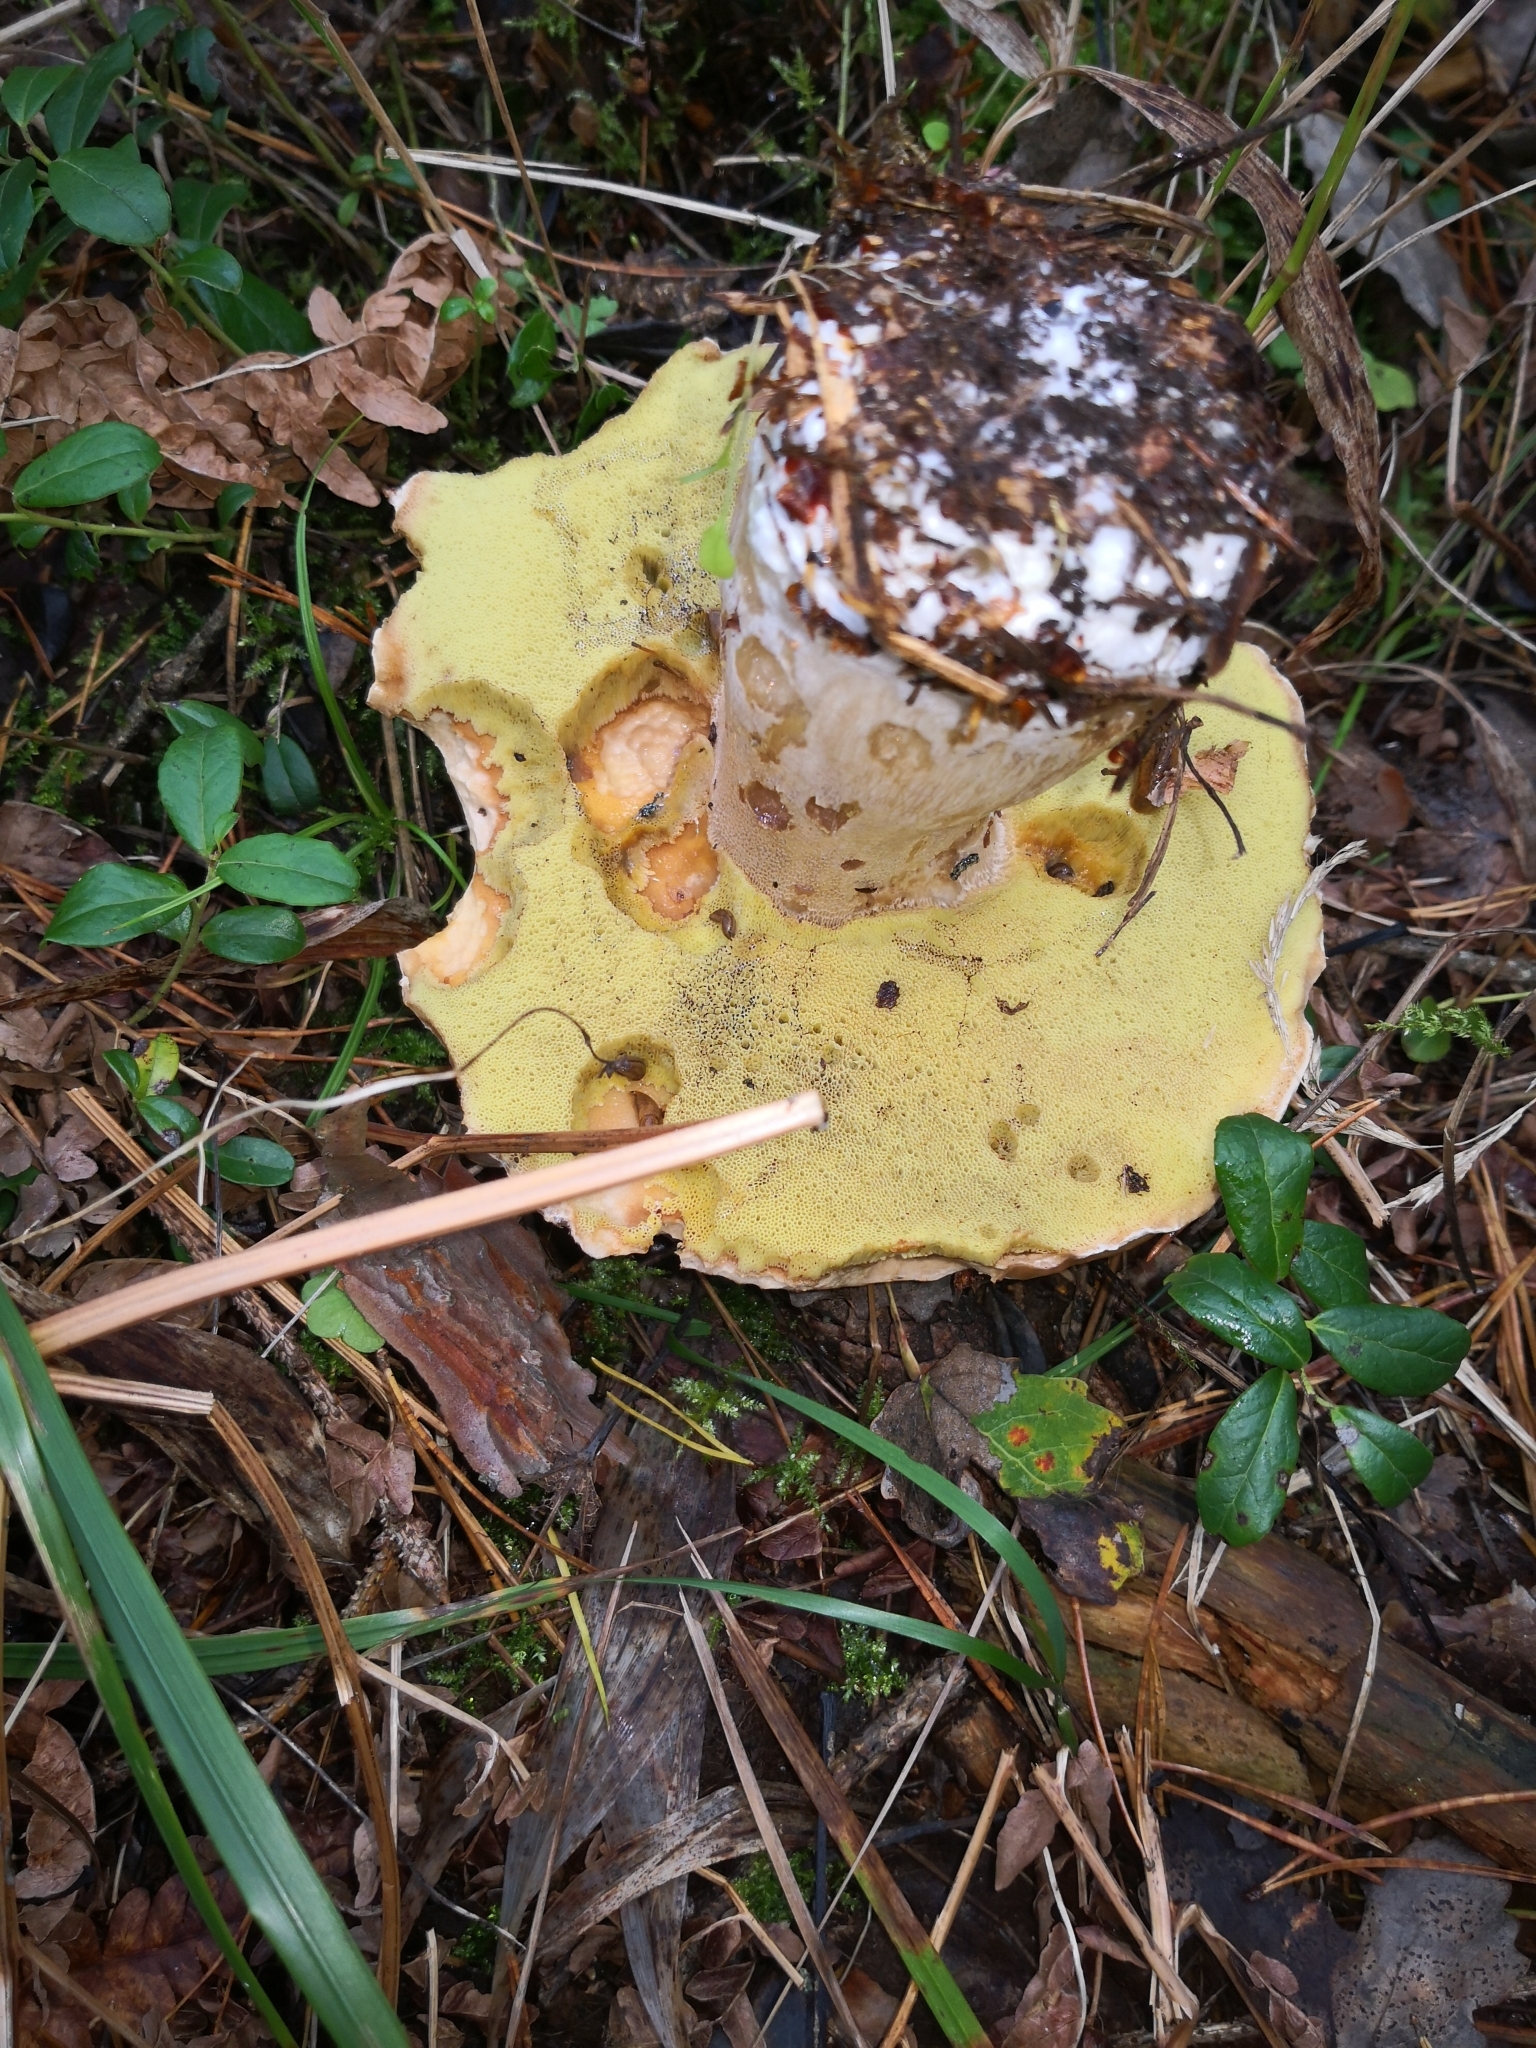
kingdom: Fungi
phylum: Basidiomycota
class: Agaricomycetes
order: Boletales
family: Boletaceae
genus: Boletus
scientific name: Boletus edulis
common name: Cep
